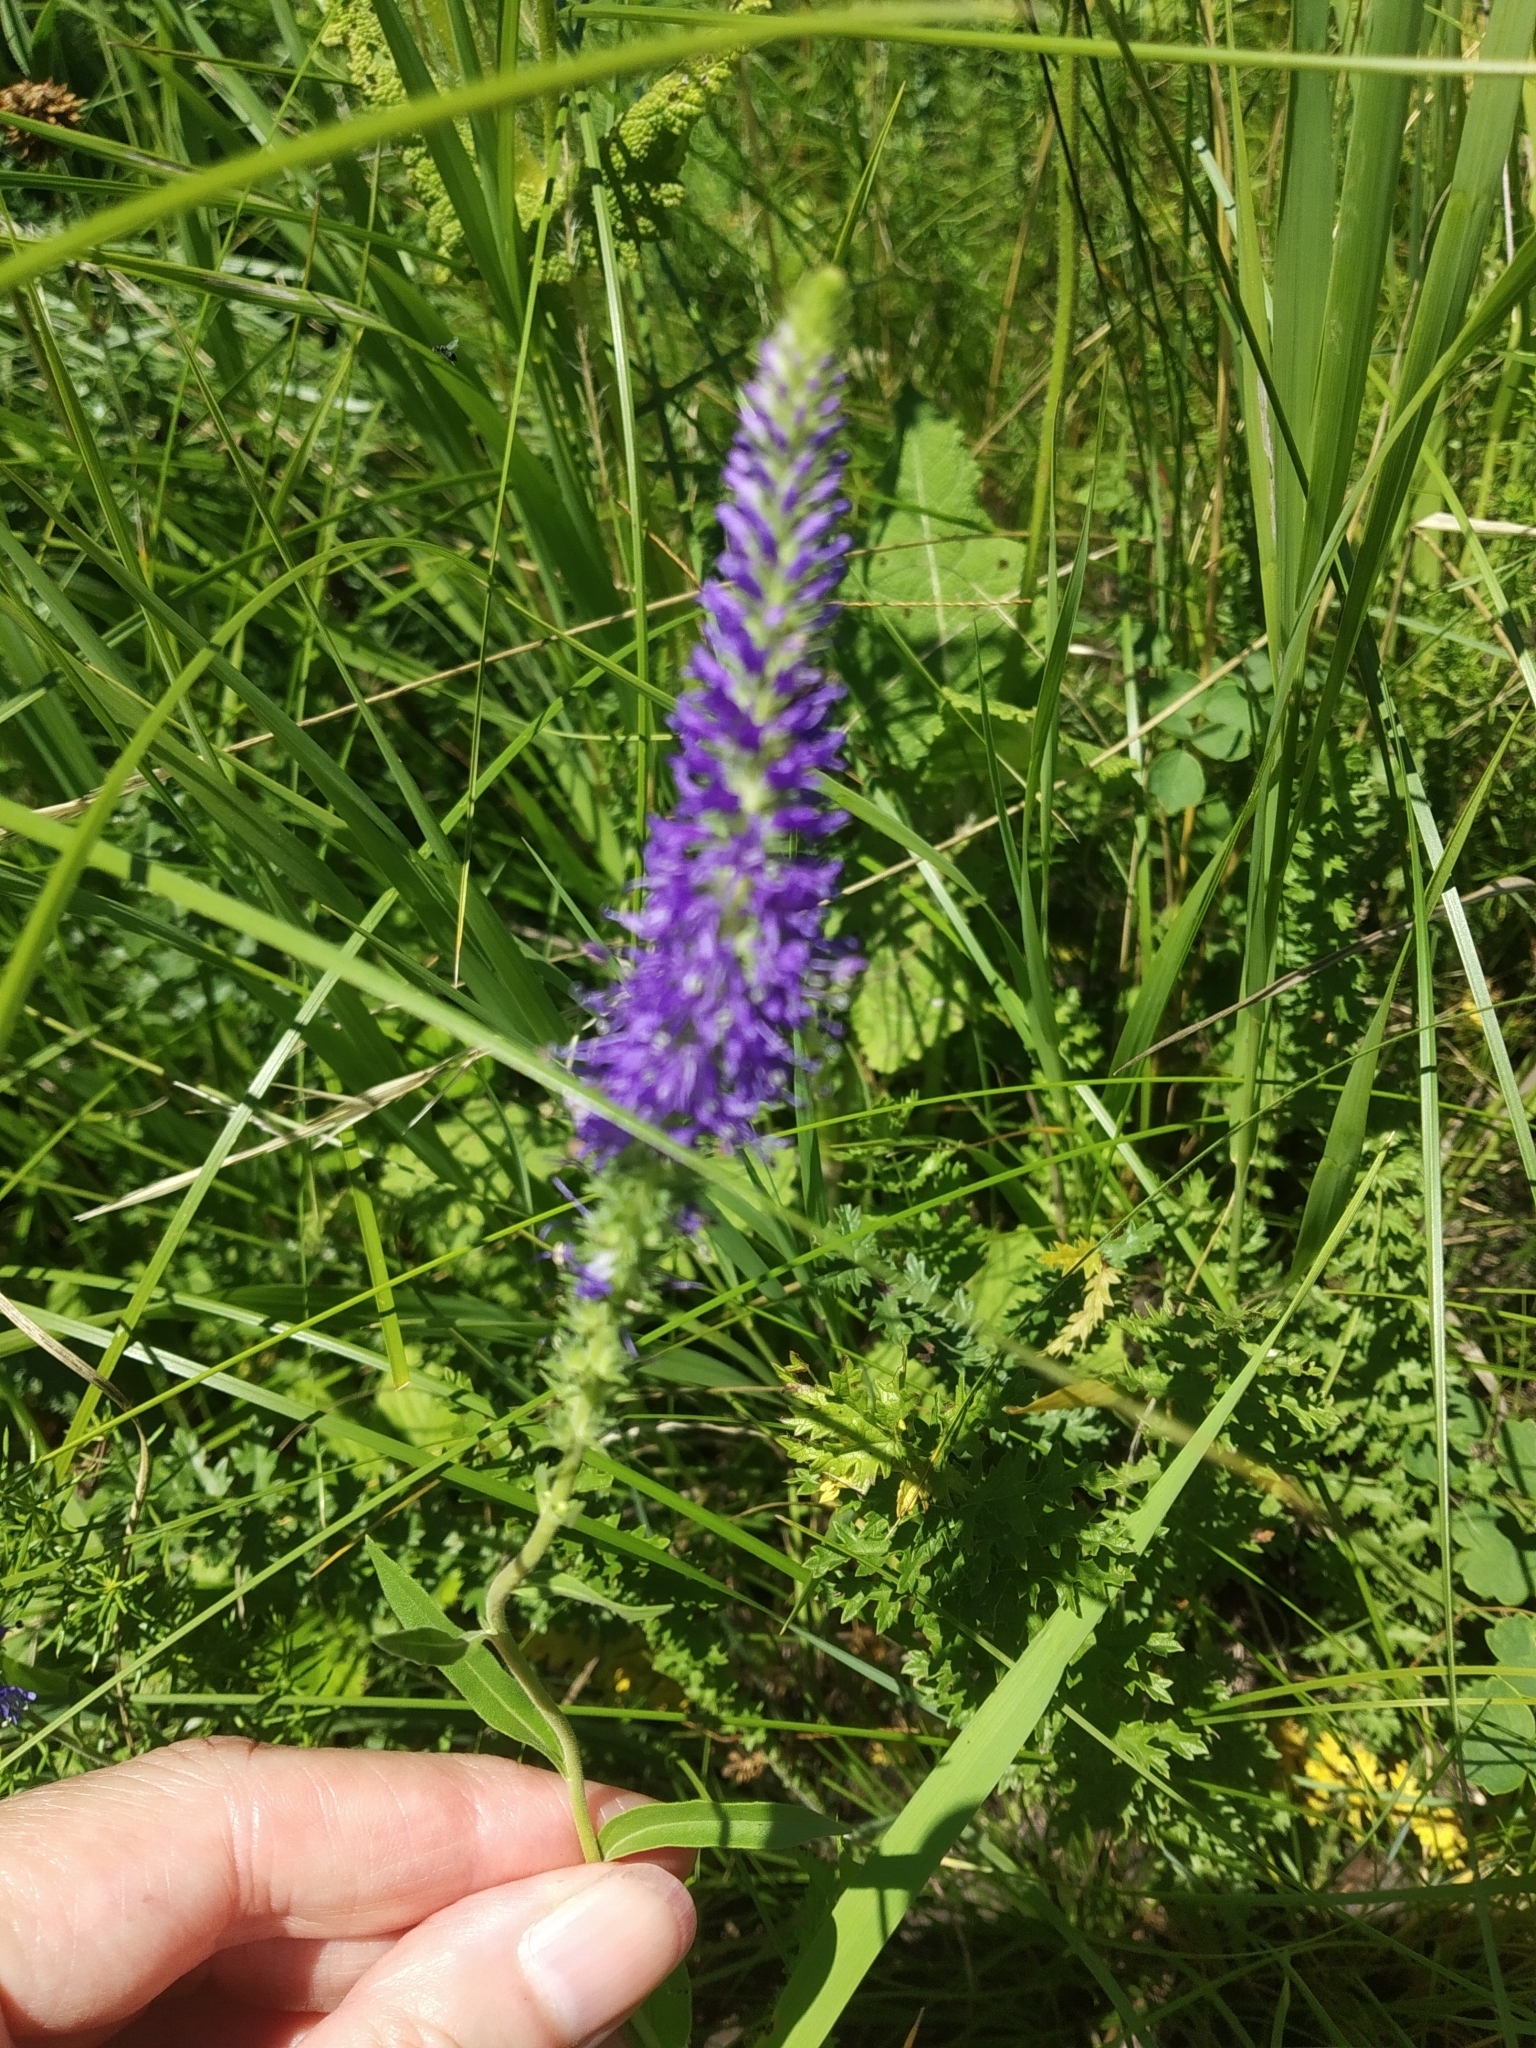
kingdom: Plantae
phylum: Tracheophyta
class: Magnoliopsida
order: Lamiales
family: Plantaginaceae
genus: Veronica
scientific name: Veronica spicata
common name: Spiked speedwell
